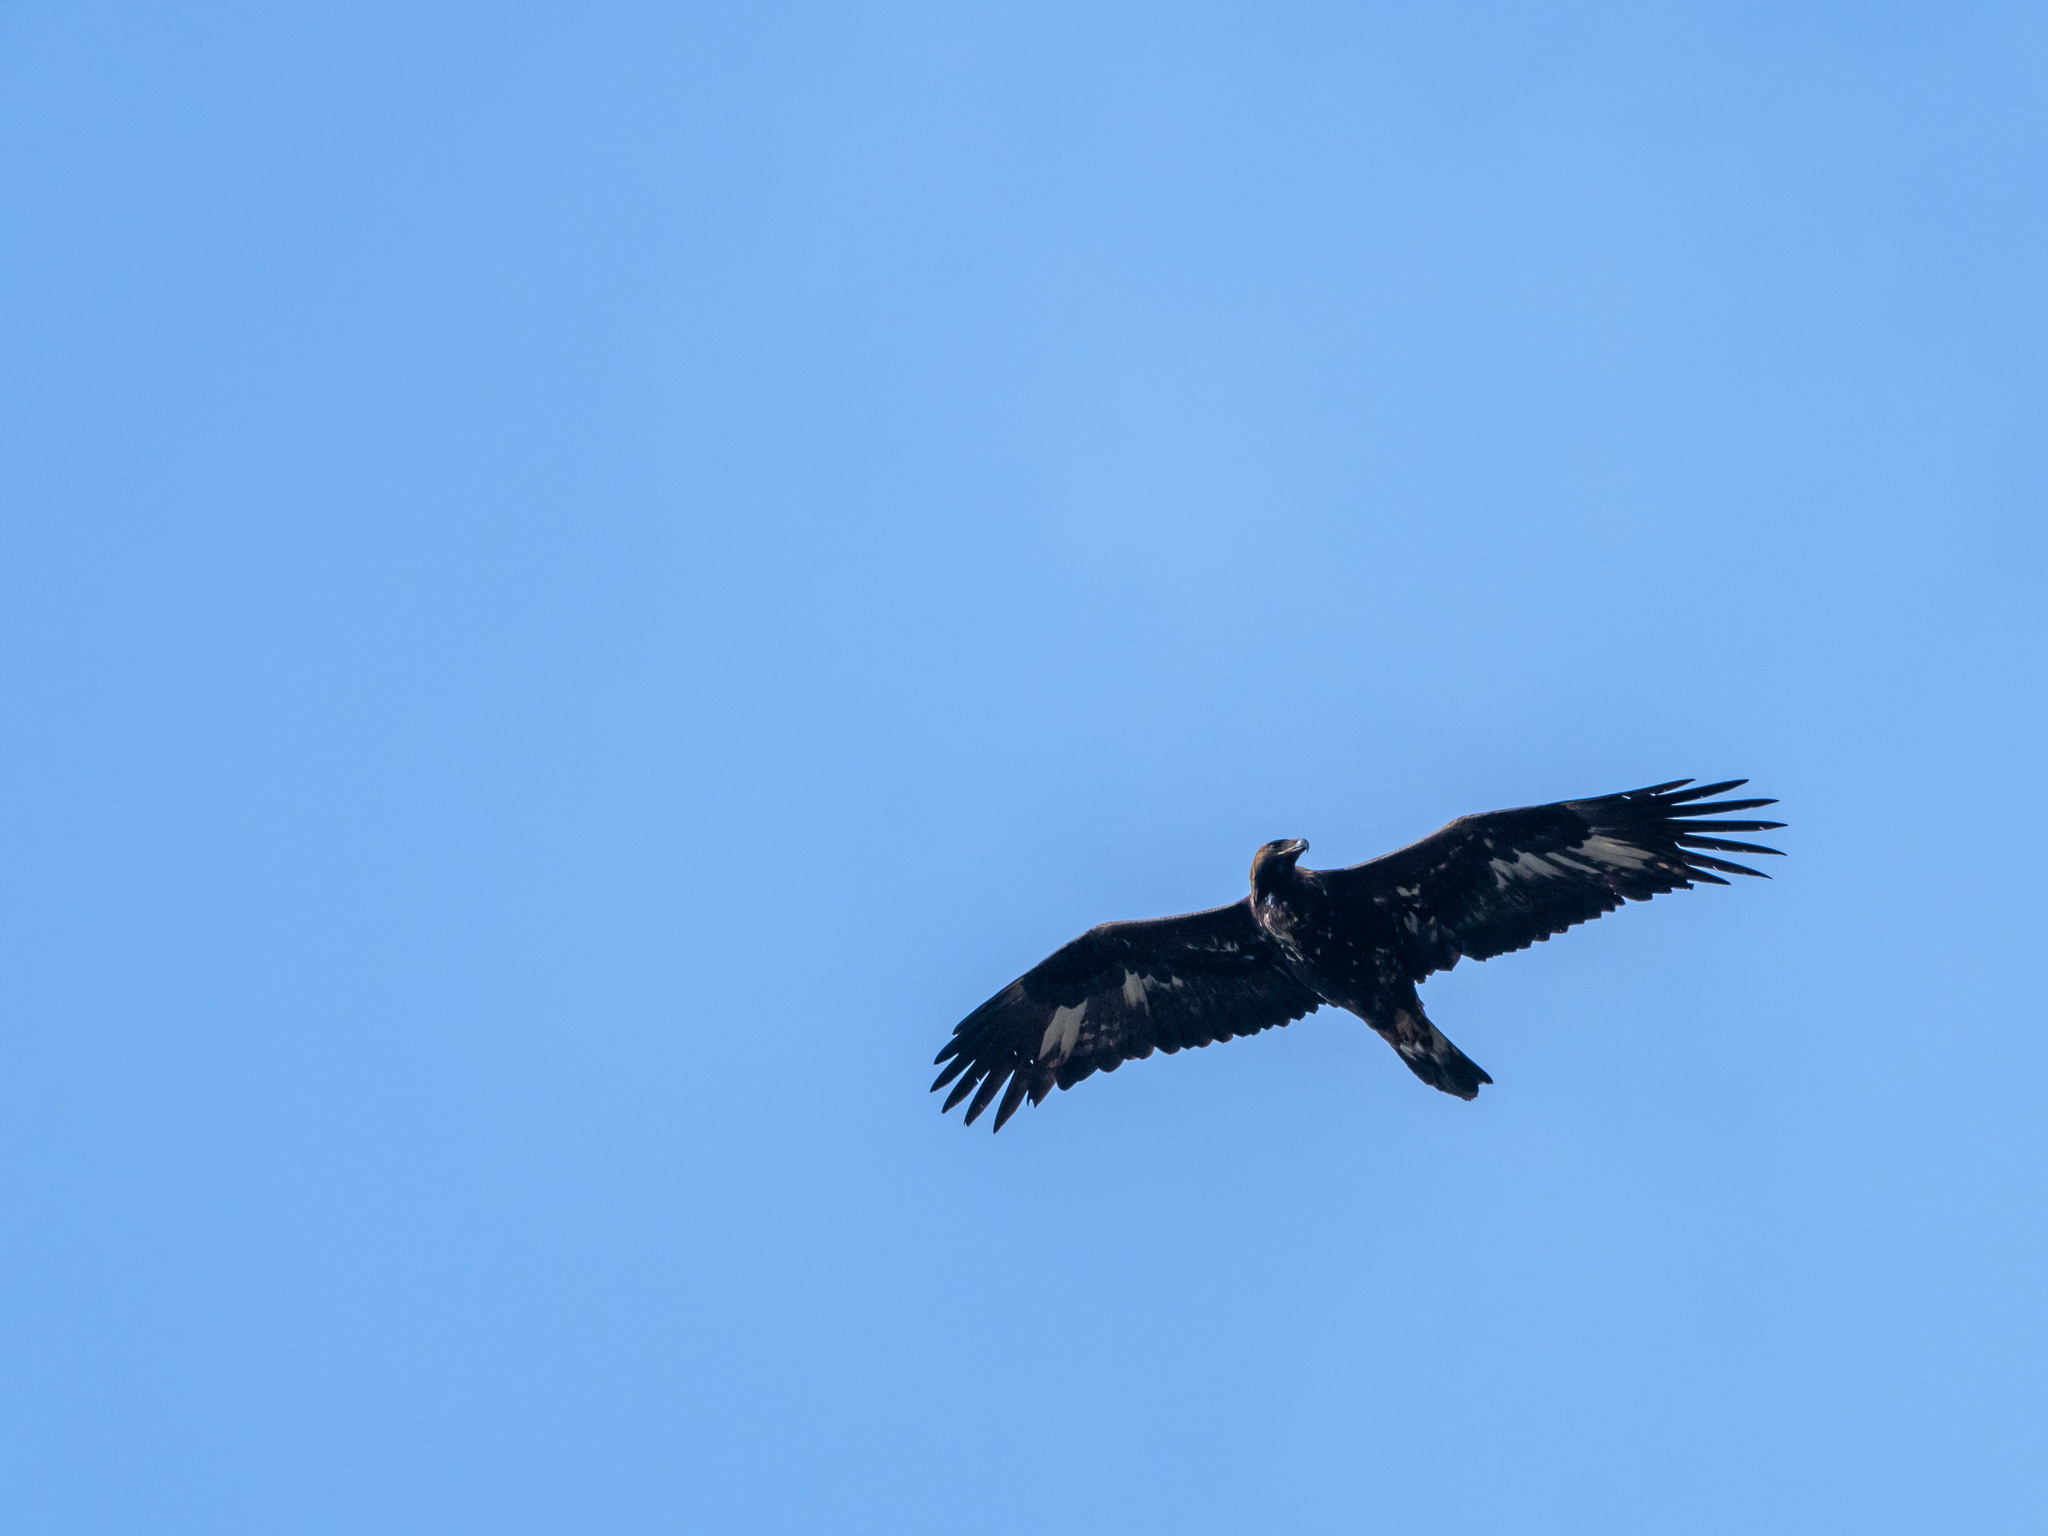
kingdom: Animalia
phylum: Chordata
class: Aves
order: Accipitriformes
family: Accipitridae
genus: Aquila
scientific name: Aquila chrysaetos
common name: Golden eagle
